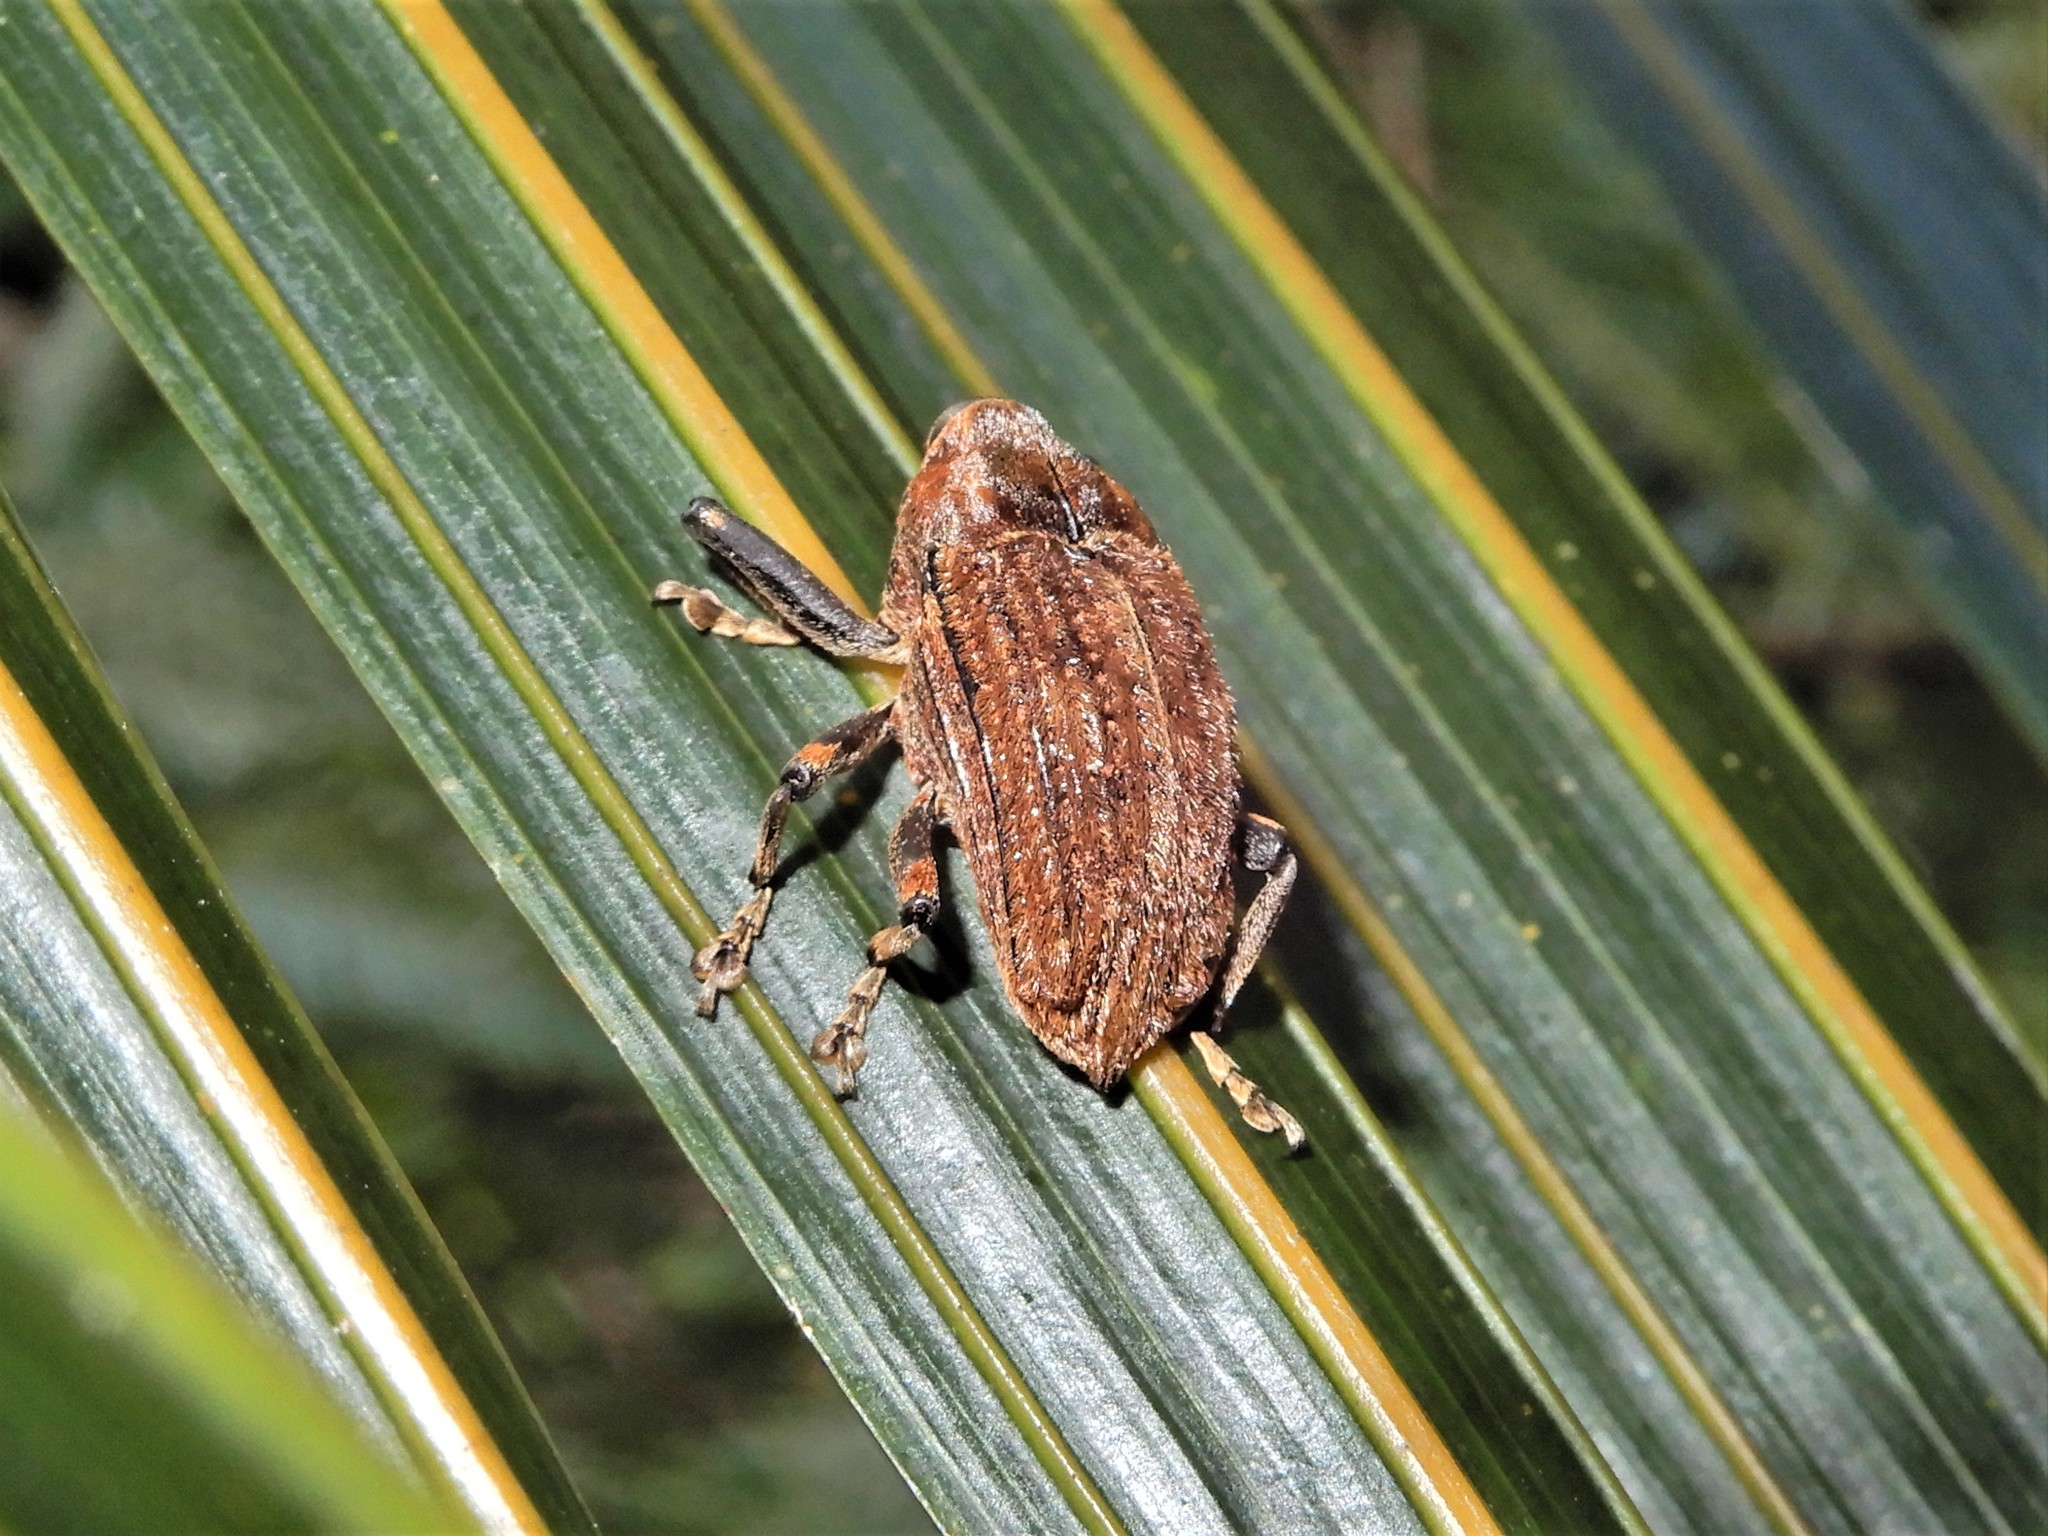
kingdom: Animalia
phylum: Arthropoda
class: Insecta
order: Coleoptera
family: Curculionidae
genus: Rhynchodes
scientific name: Rhynchodes ursus
